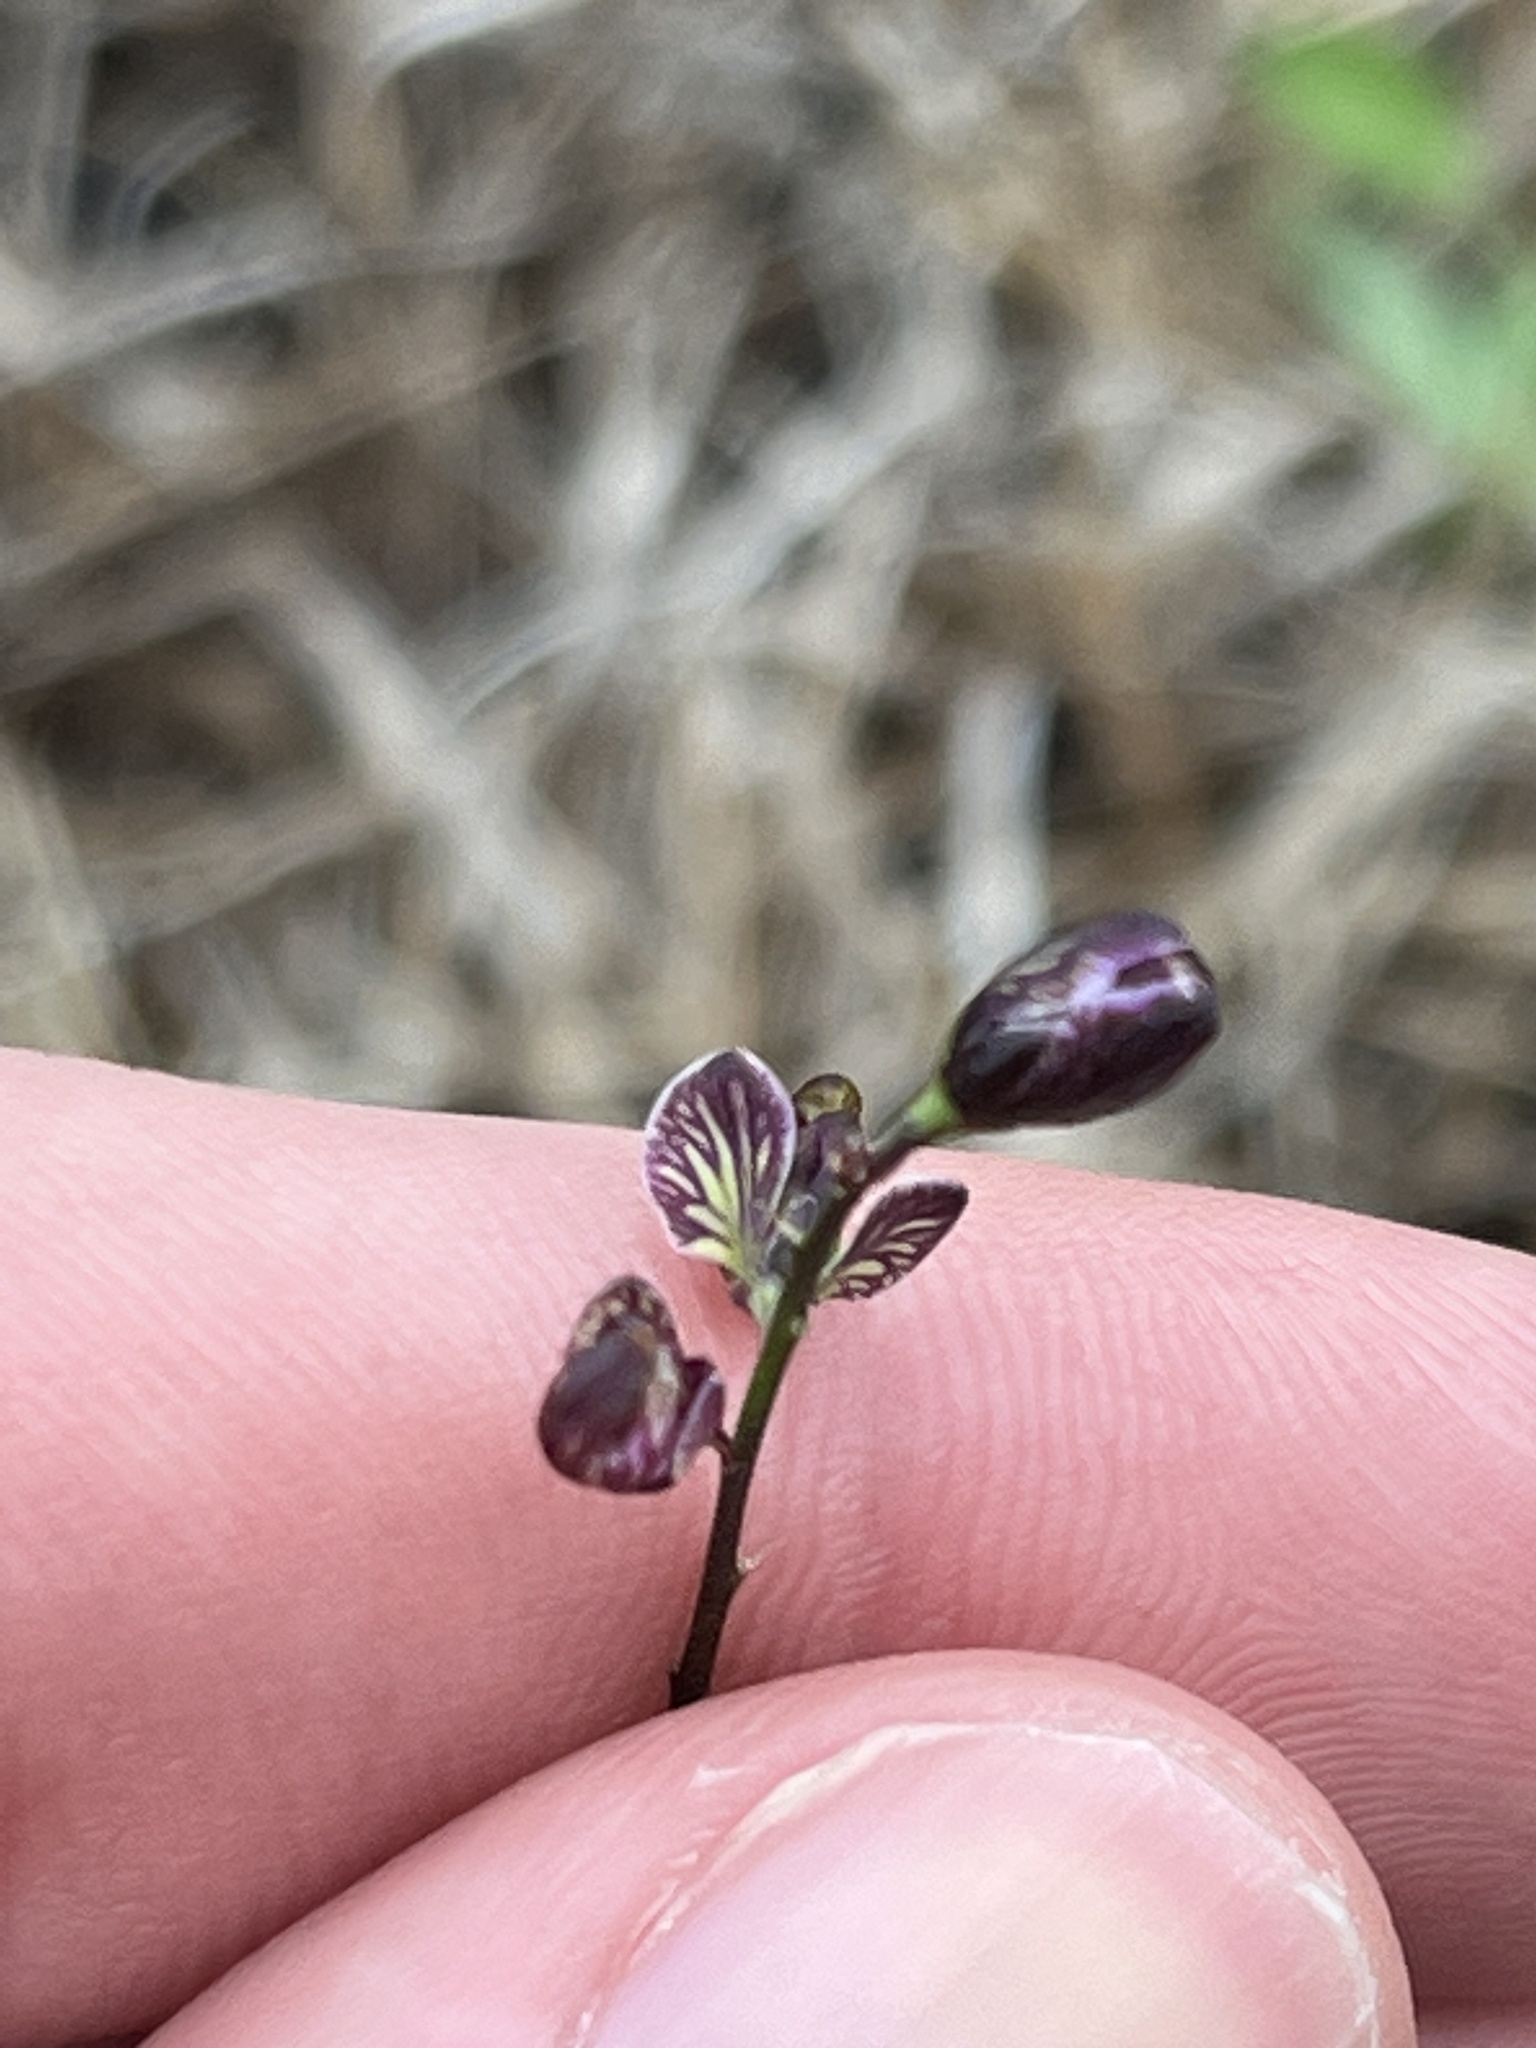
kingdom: Plantae
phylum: Tracheophyta
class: Magnoliopsida
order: Fabales
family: Polygalaceae
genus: Asemeia
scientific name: Asemeia grandiflora
